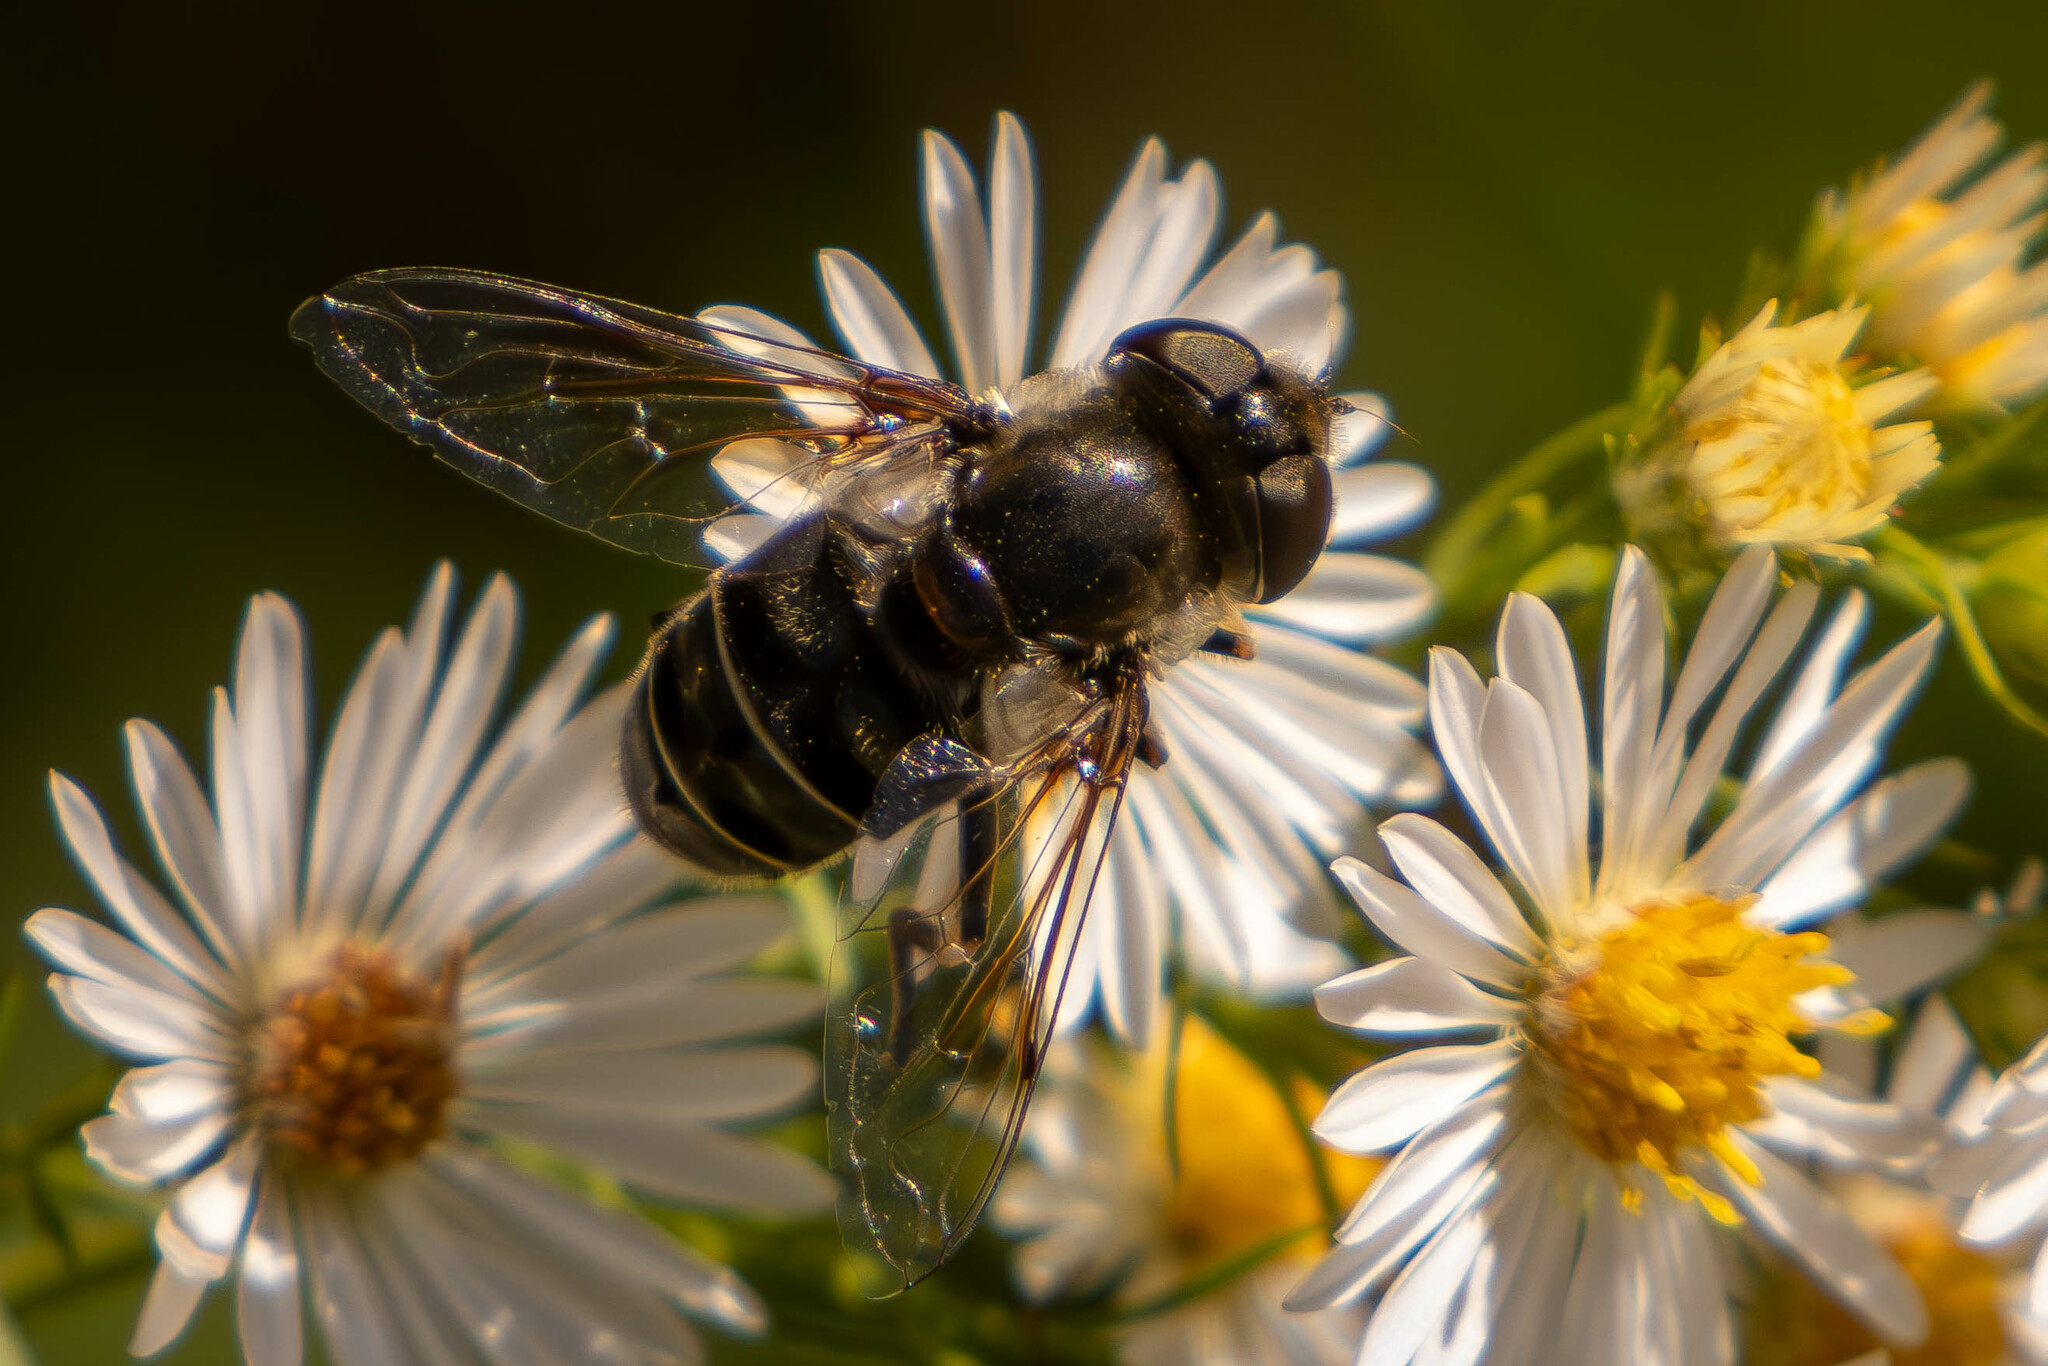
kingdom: Animalia
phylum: Arthropoda
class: Insecta
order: Diptera
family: Syrphidae
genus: Eristalis
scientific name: Eristalis dimidiata
